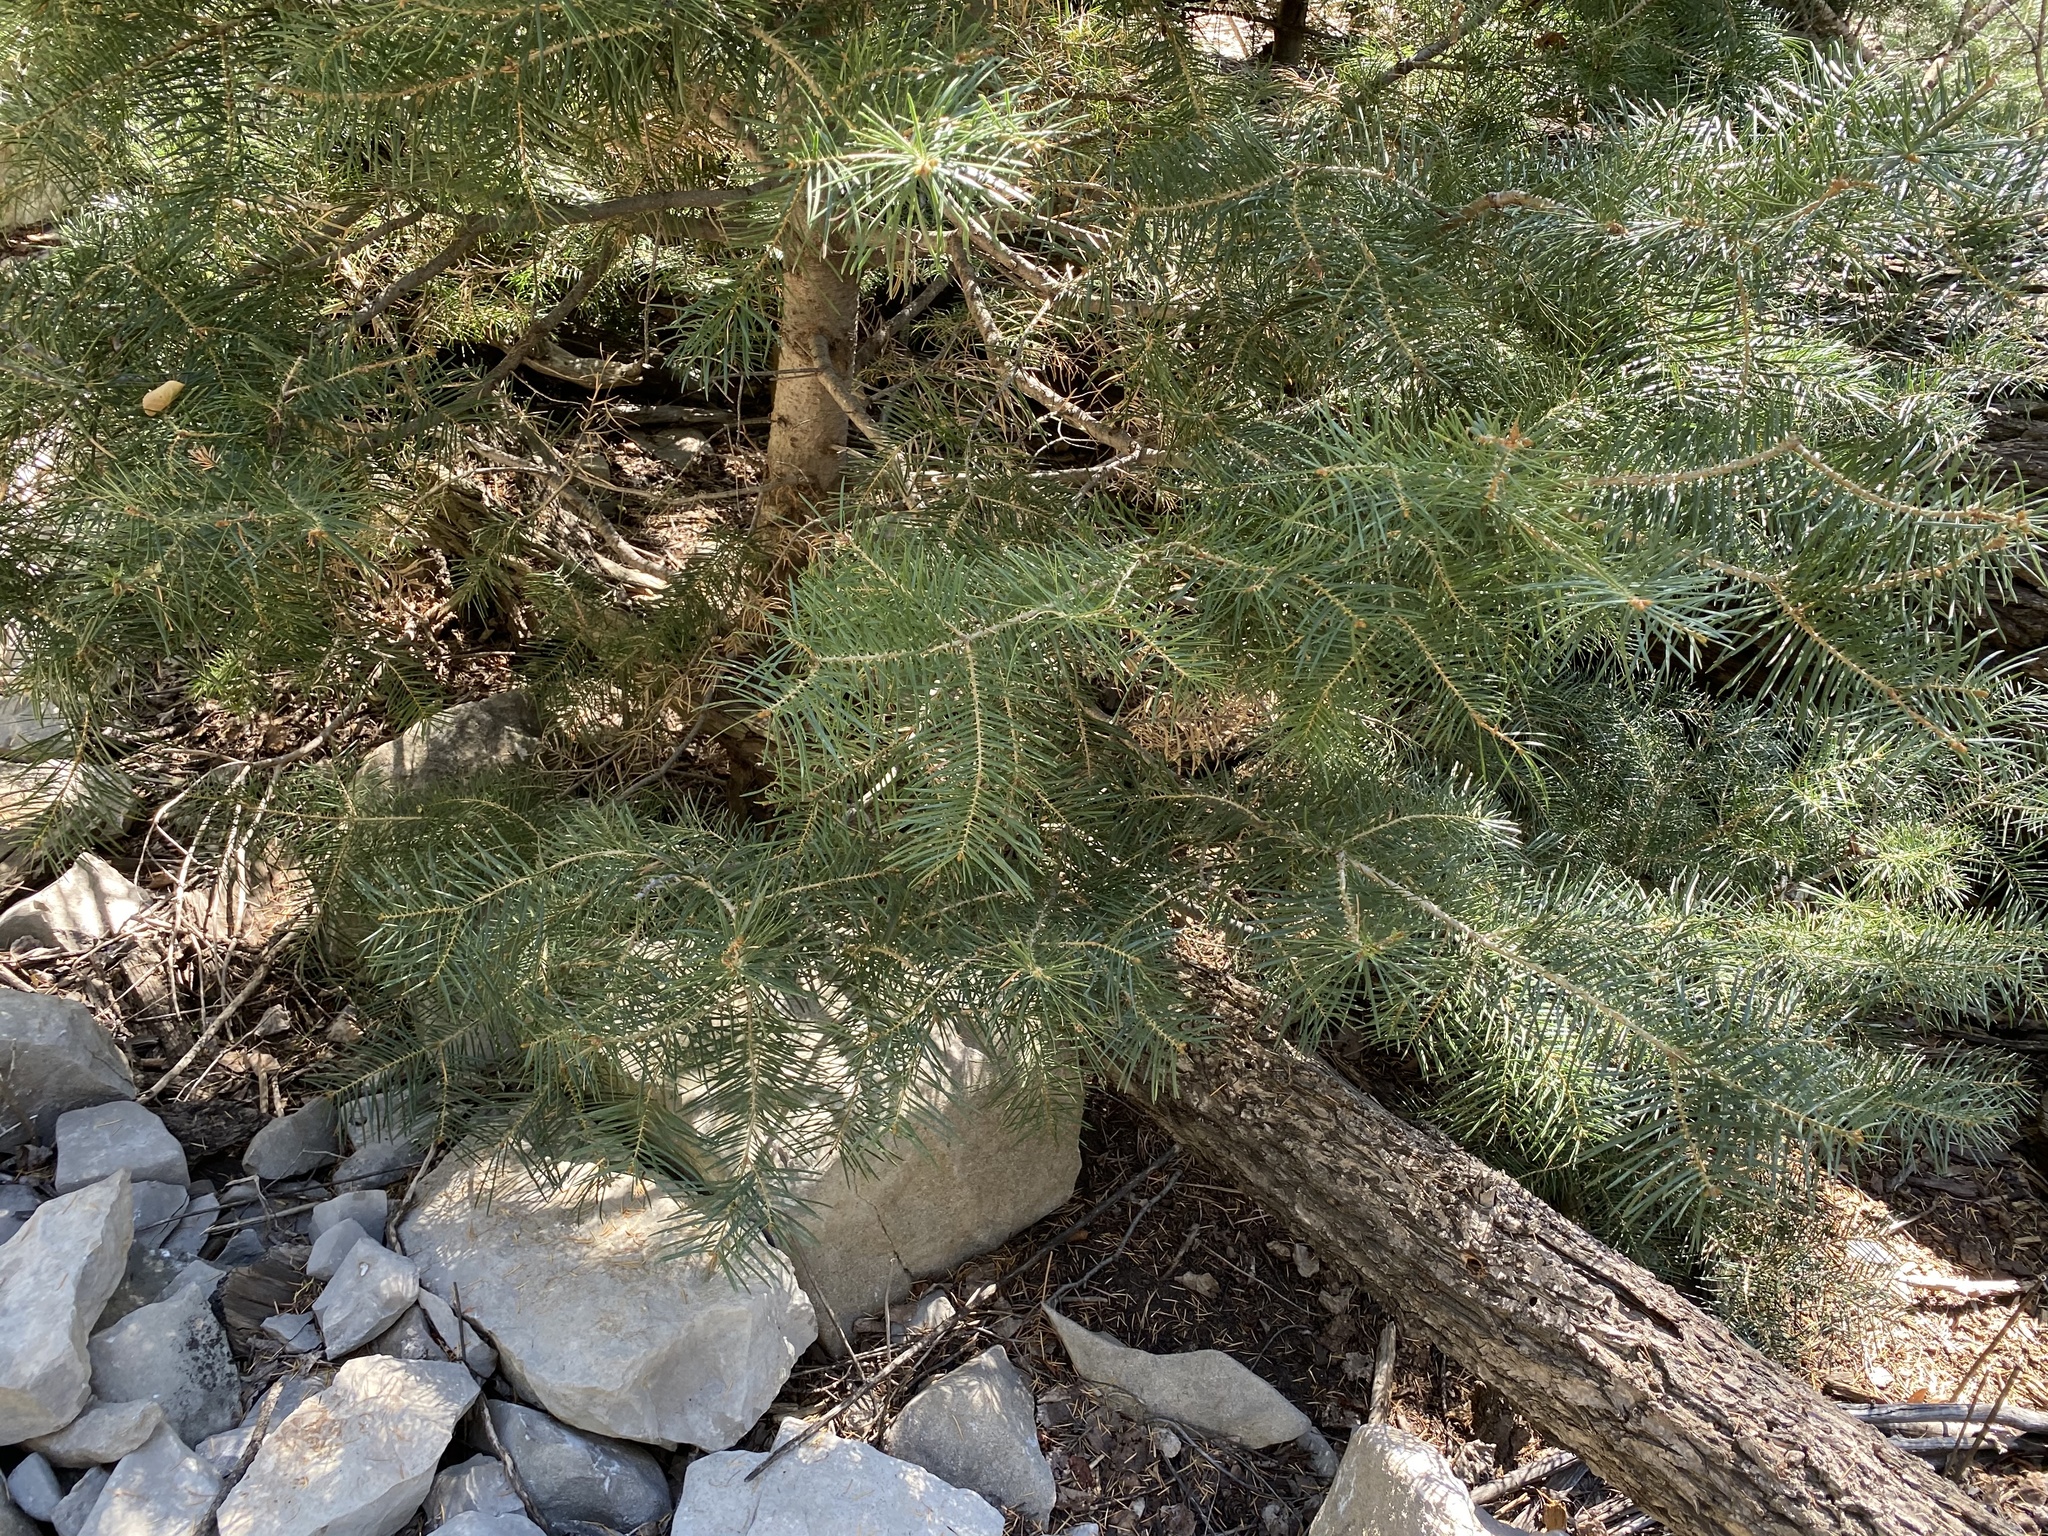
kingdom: Plantae
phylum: Tracheophyta
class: Pinopsida
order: Pinales
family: Pinaceae
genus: Abies
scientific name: Abies concolor
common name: Colorado fir
